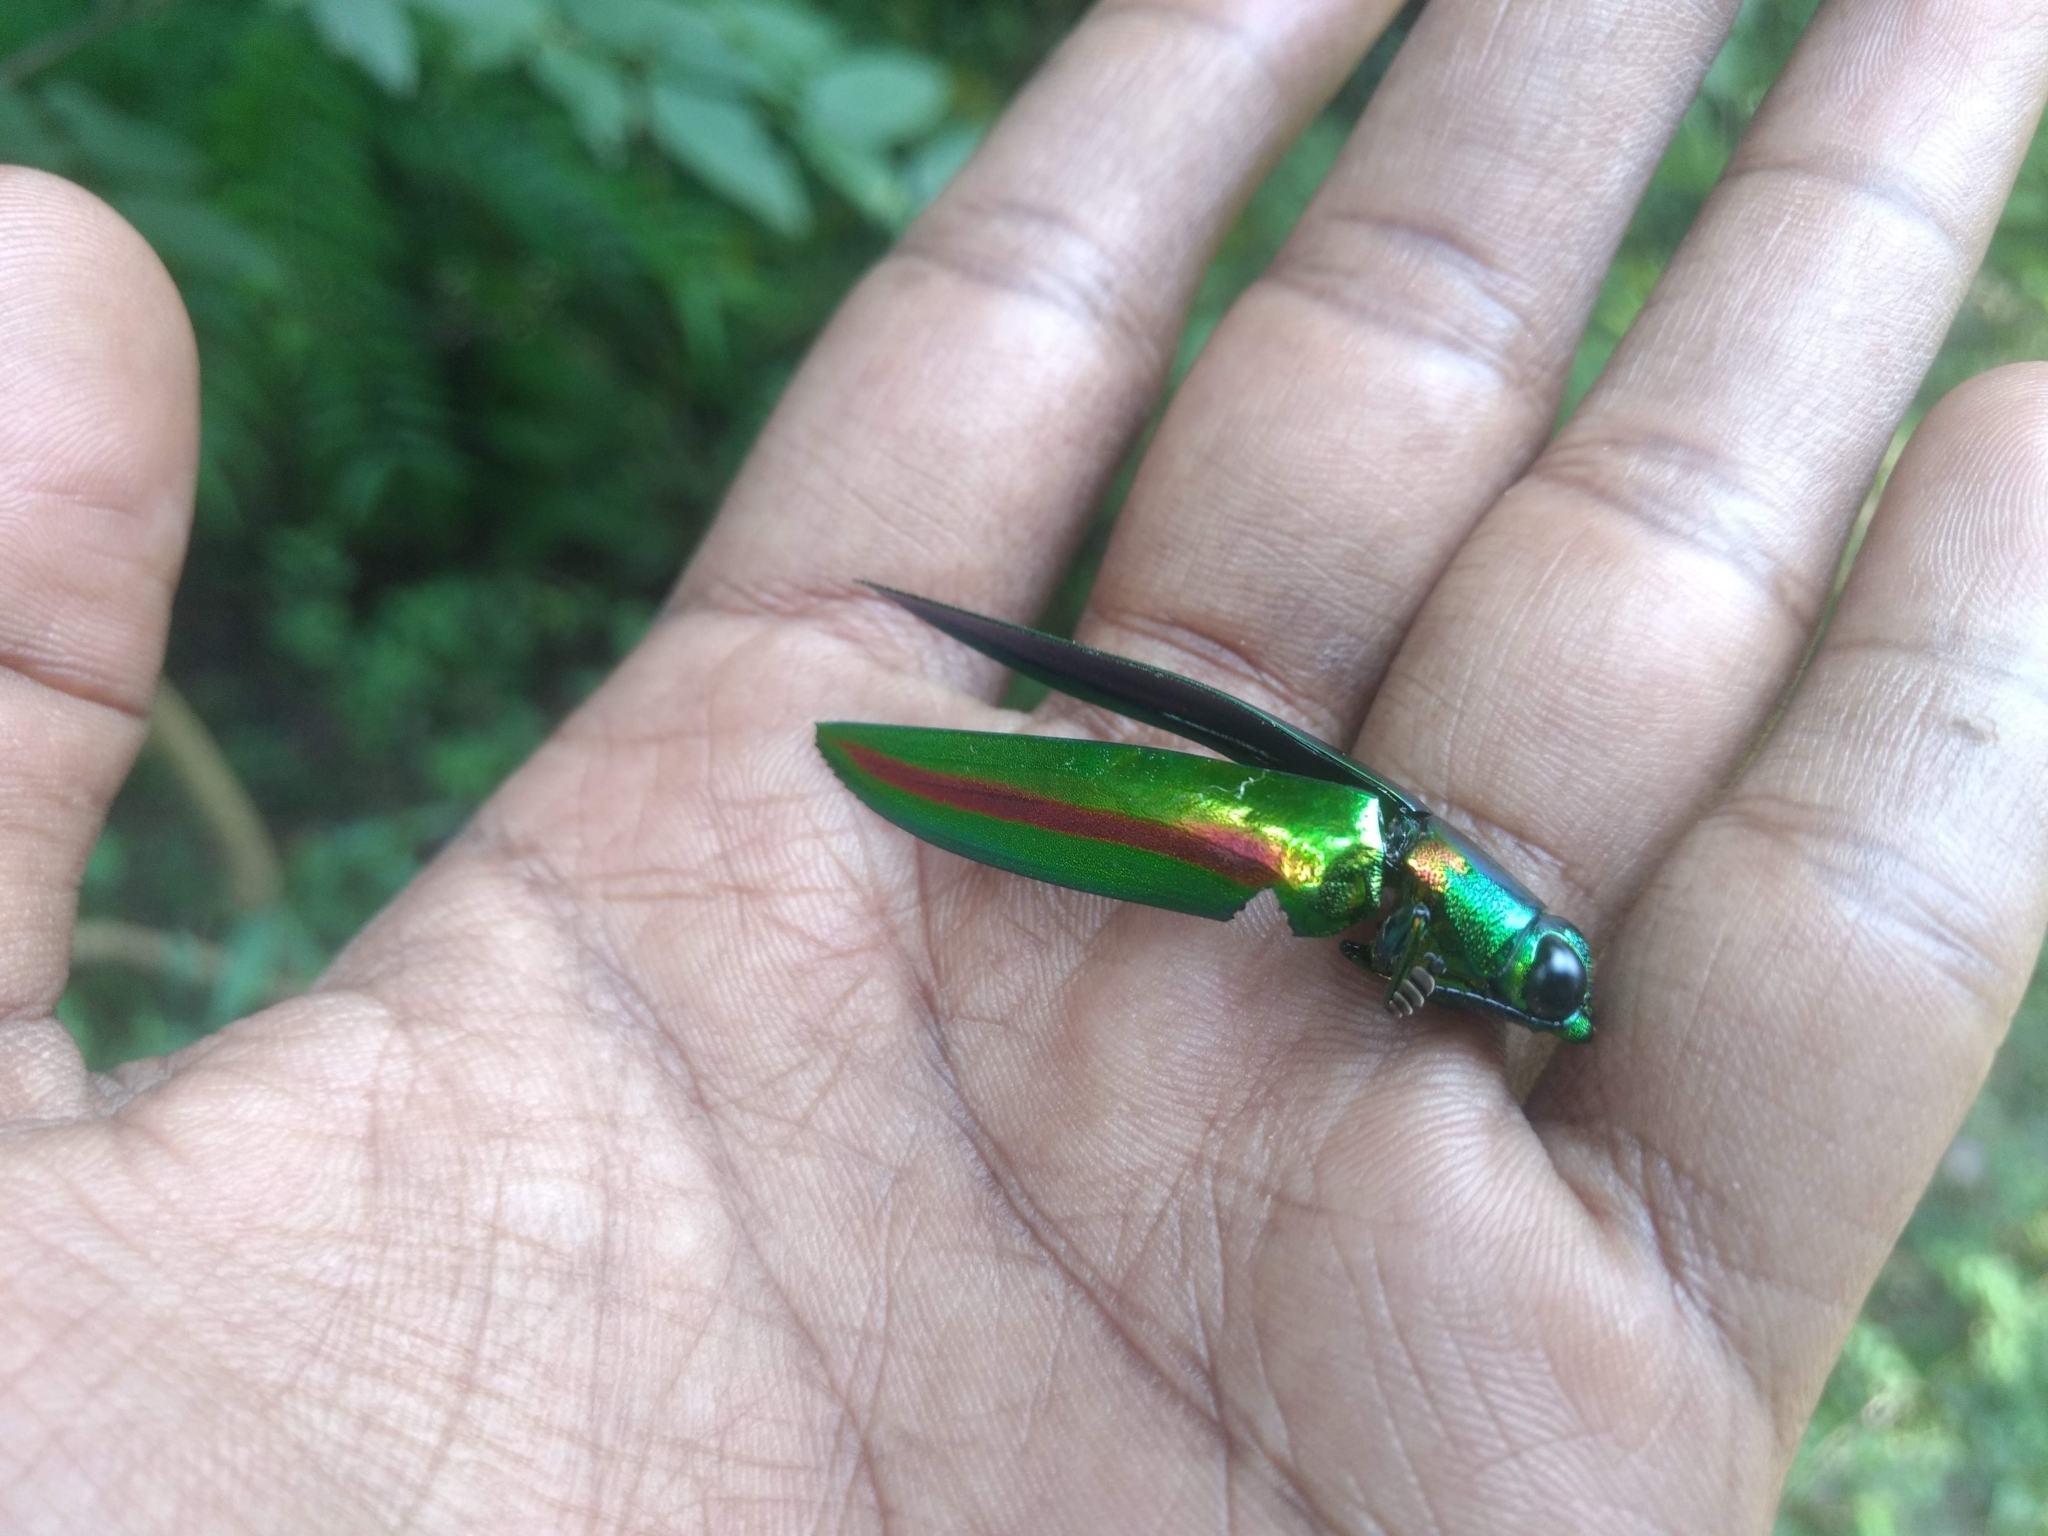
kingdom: Animalia
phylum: Arthropoda
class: Insecta
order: Coleoptera
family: Buprestidae
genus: Chrysochroa
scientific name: Chrysochroa rajah
